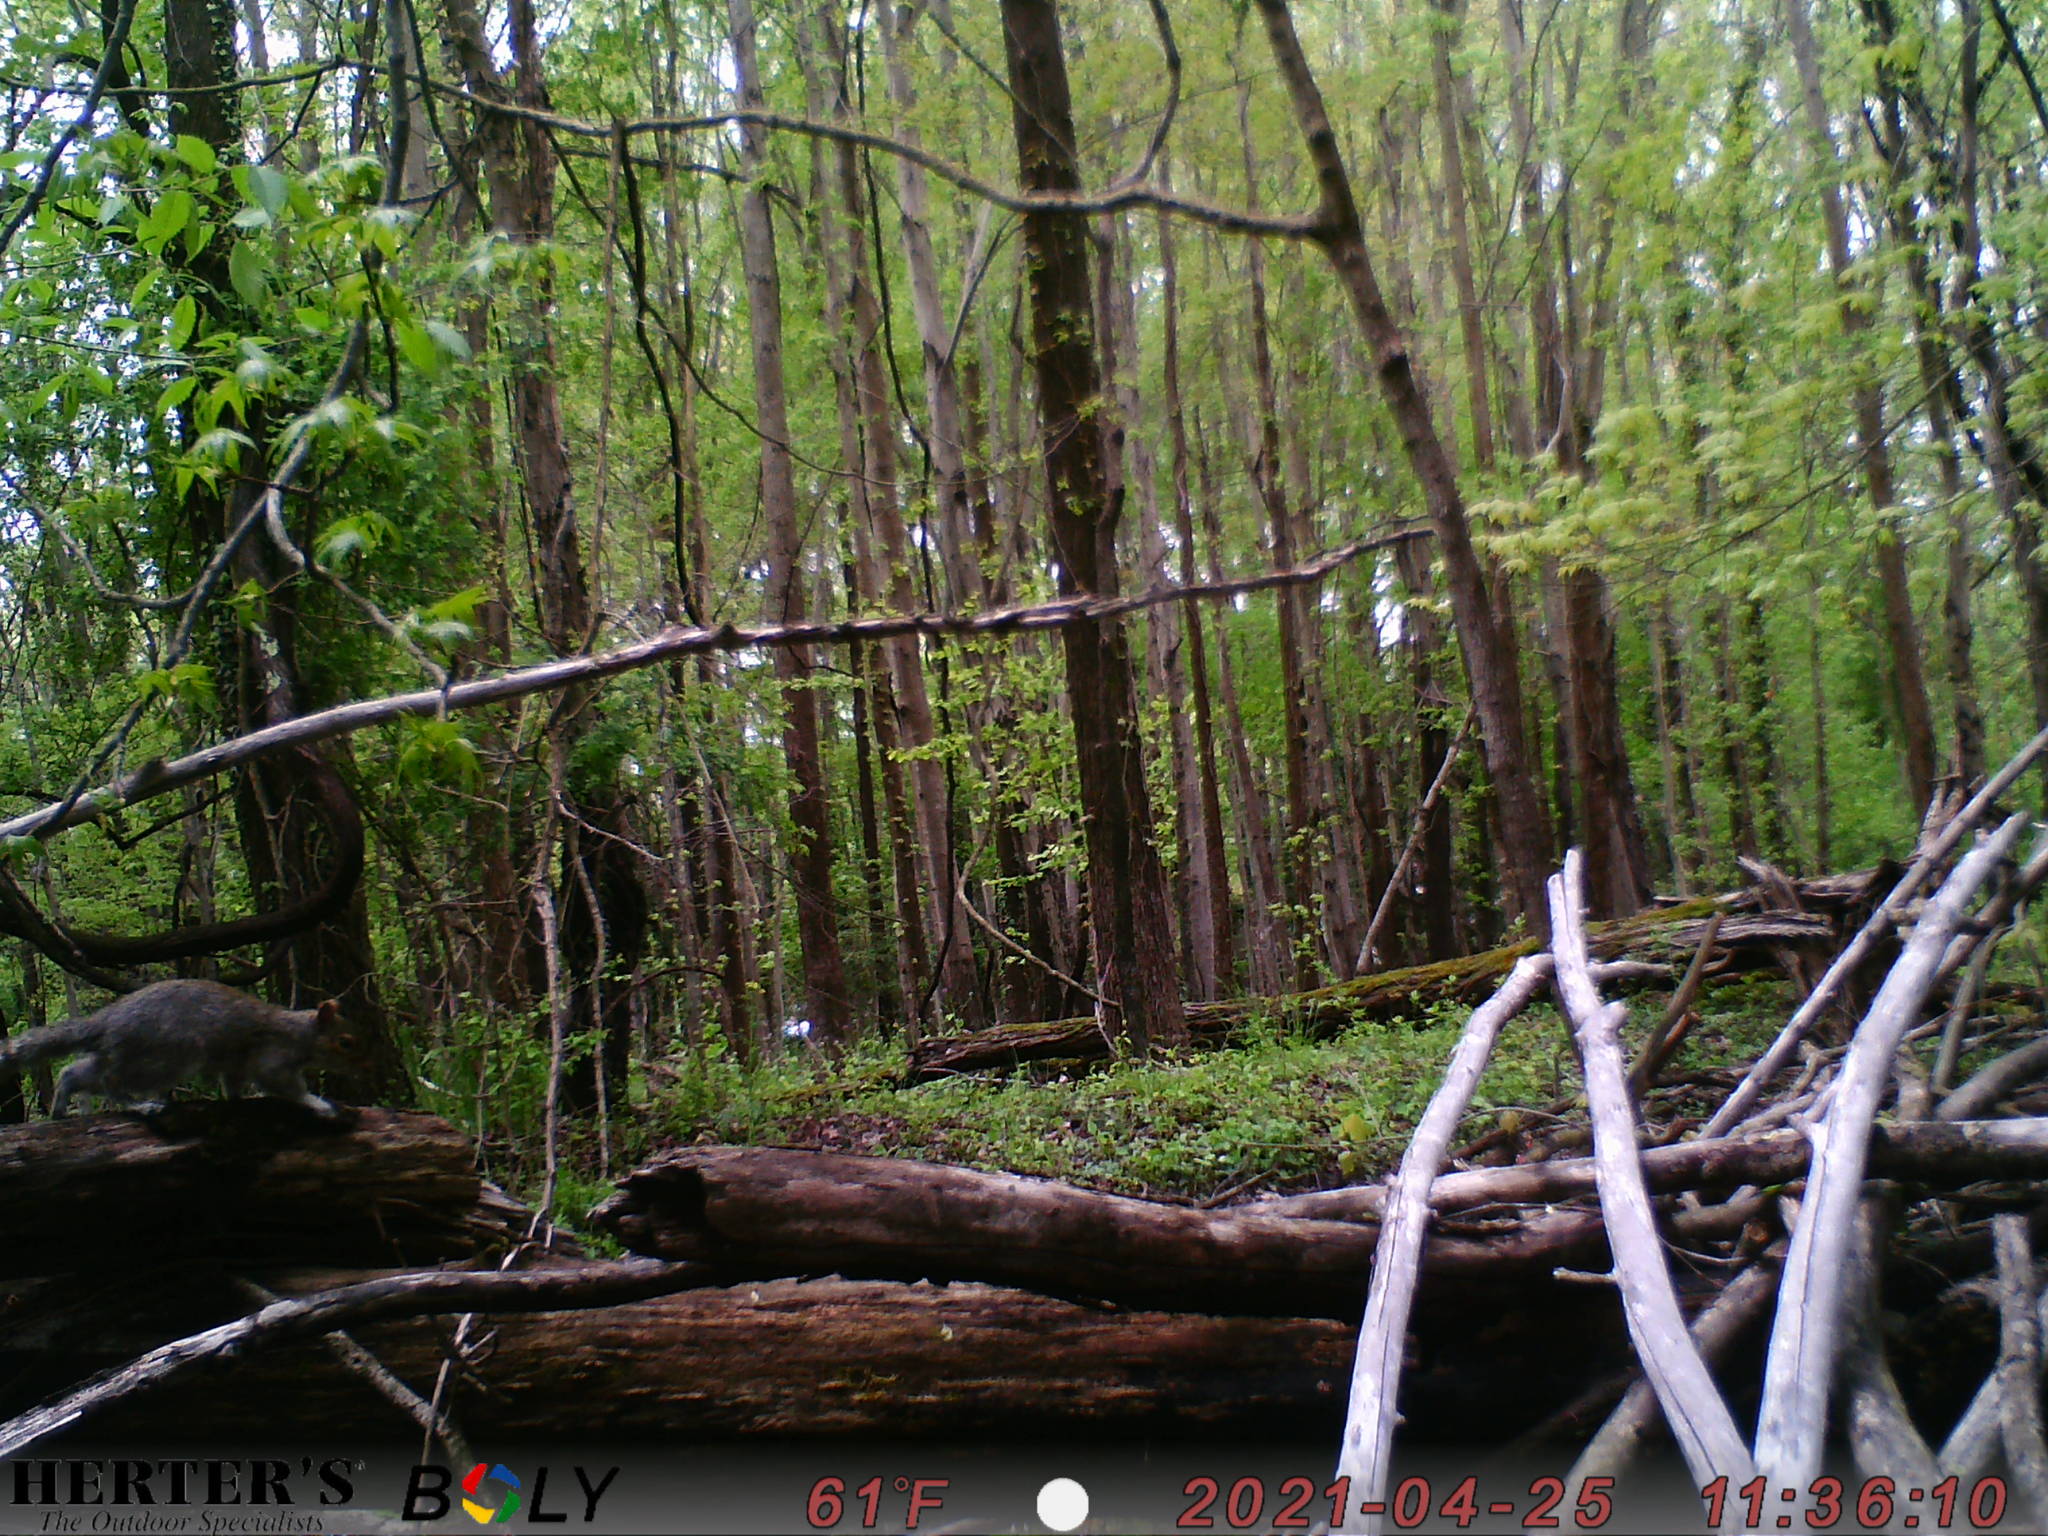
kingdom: Animalia
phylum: Chordata
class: Mammalia
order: Rodentia
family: Sciuridae
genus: Sciurus
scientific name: Sciurus carolinensis
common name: Eastern gray squirrel
